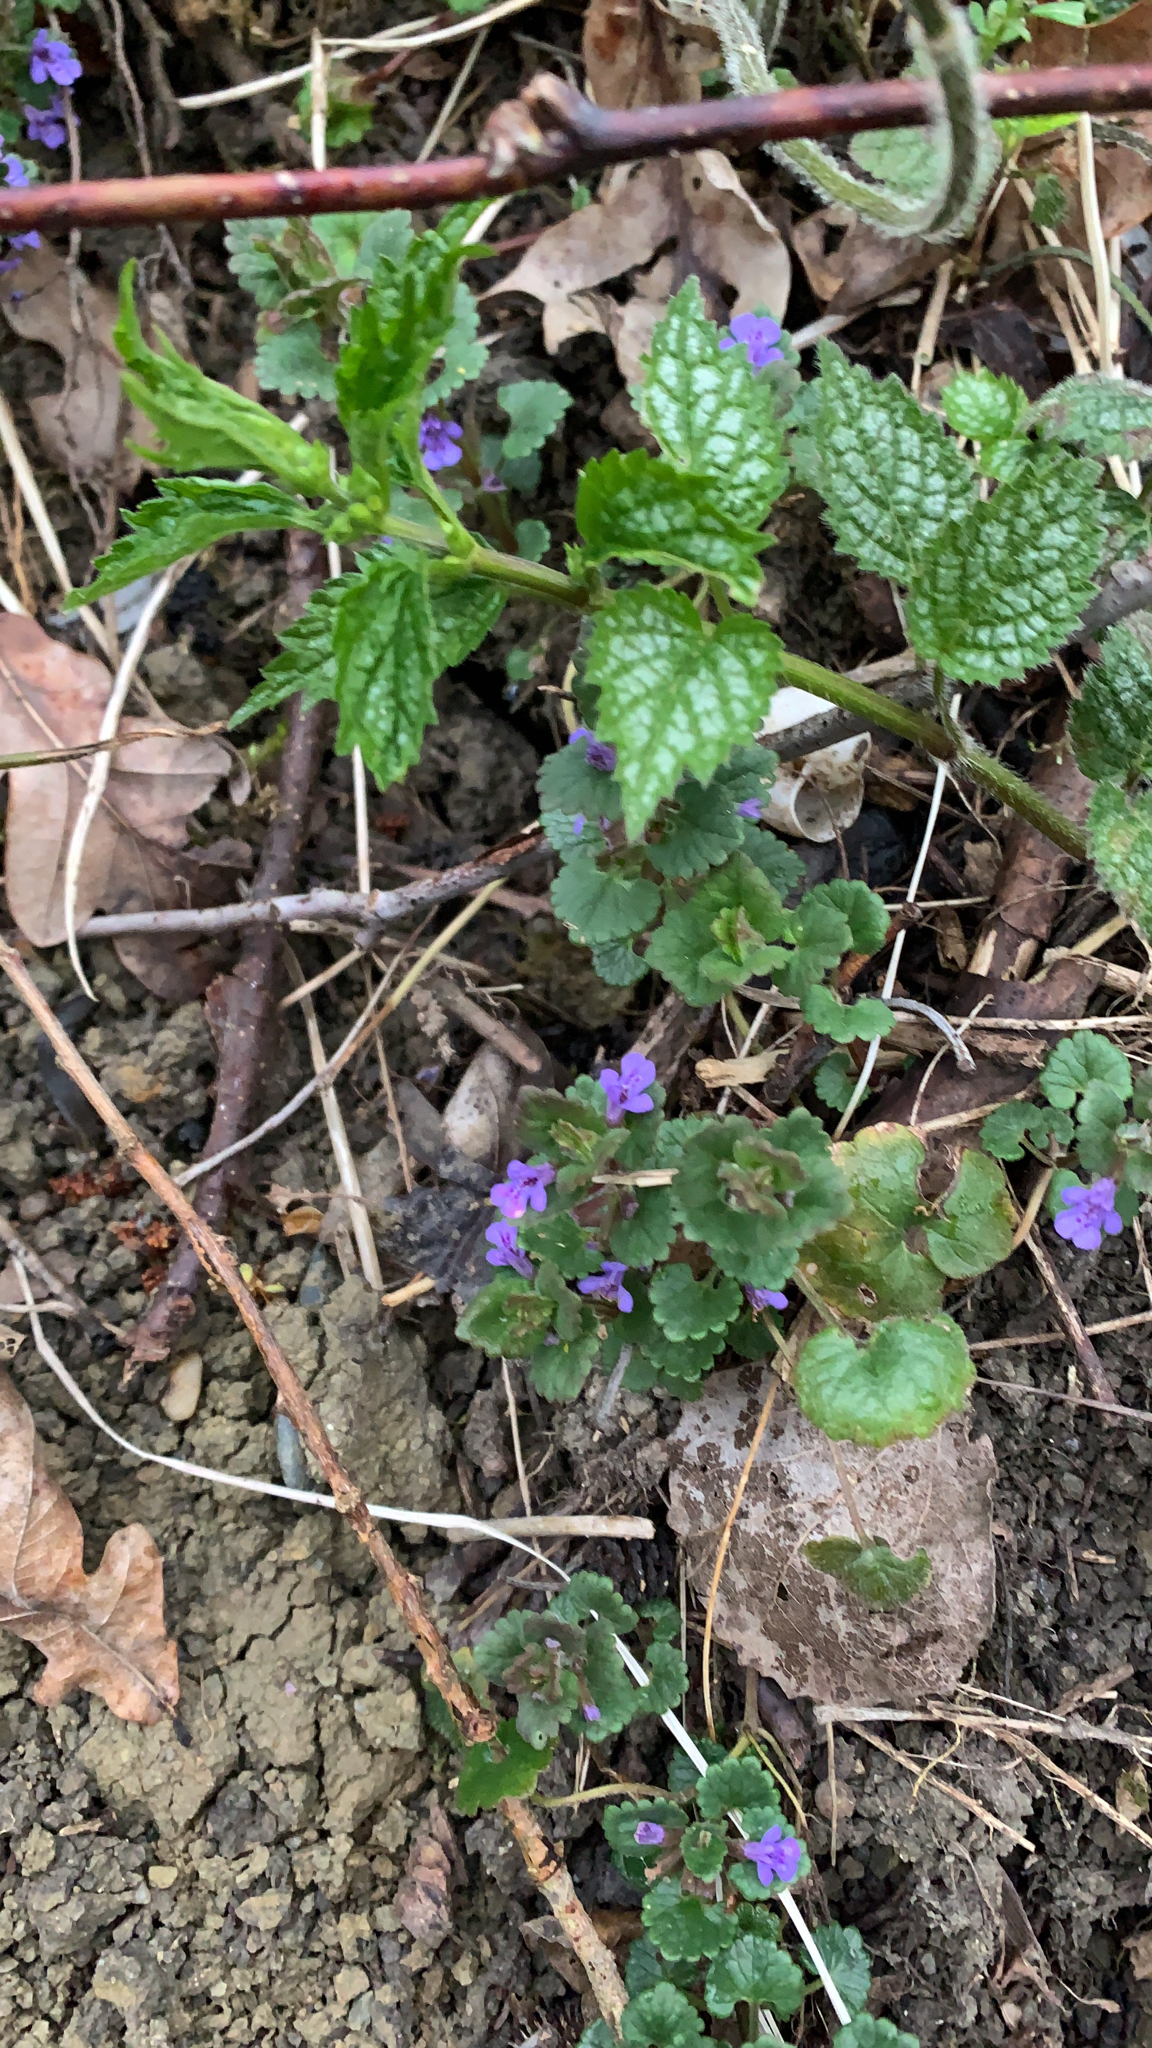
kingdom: Plantae
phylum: Tracheophyta
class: Magnoliopsida
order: Lamiales
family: Lamiaceae
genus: Glechoma
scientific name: Glechoma hederacea
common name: Ground ivy
